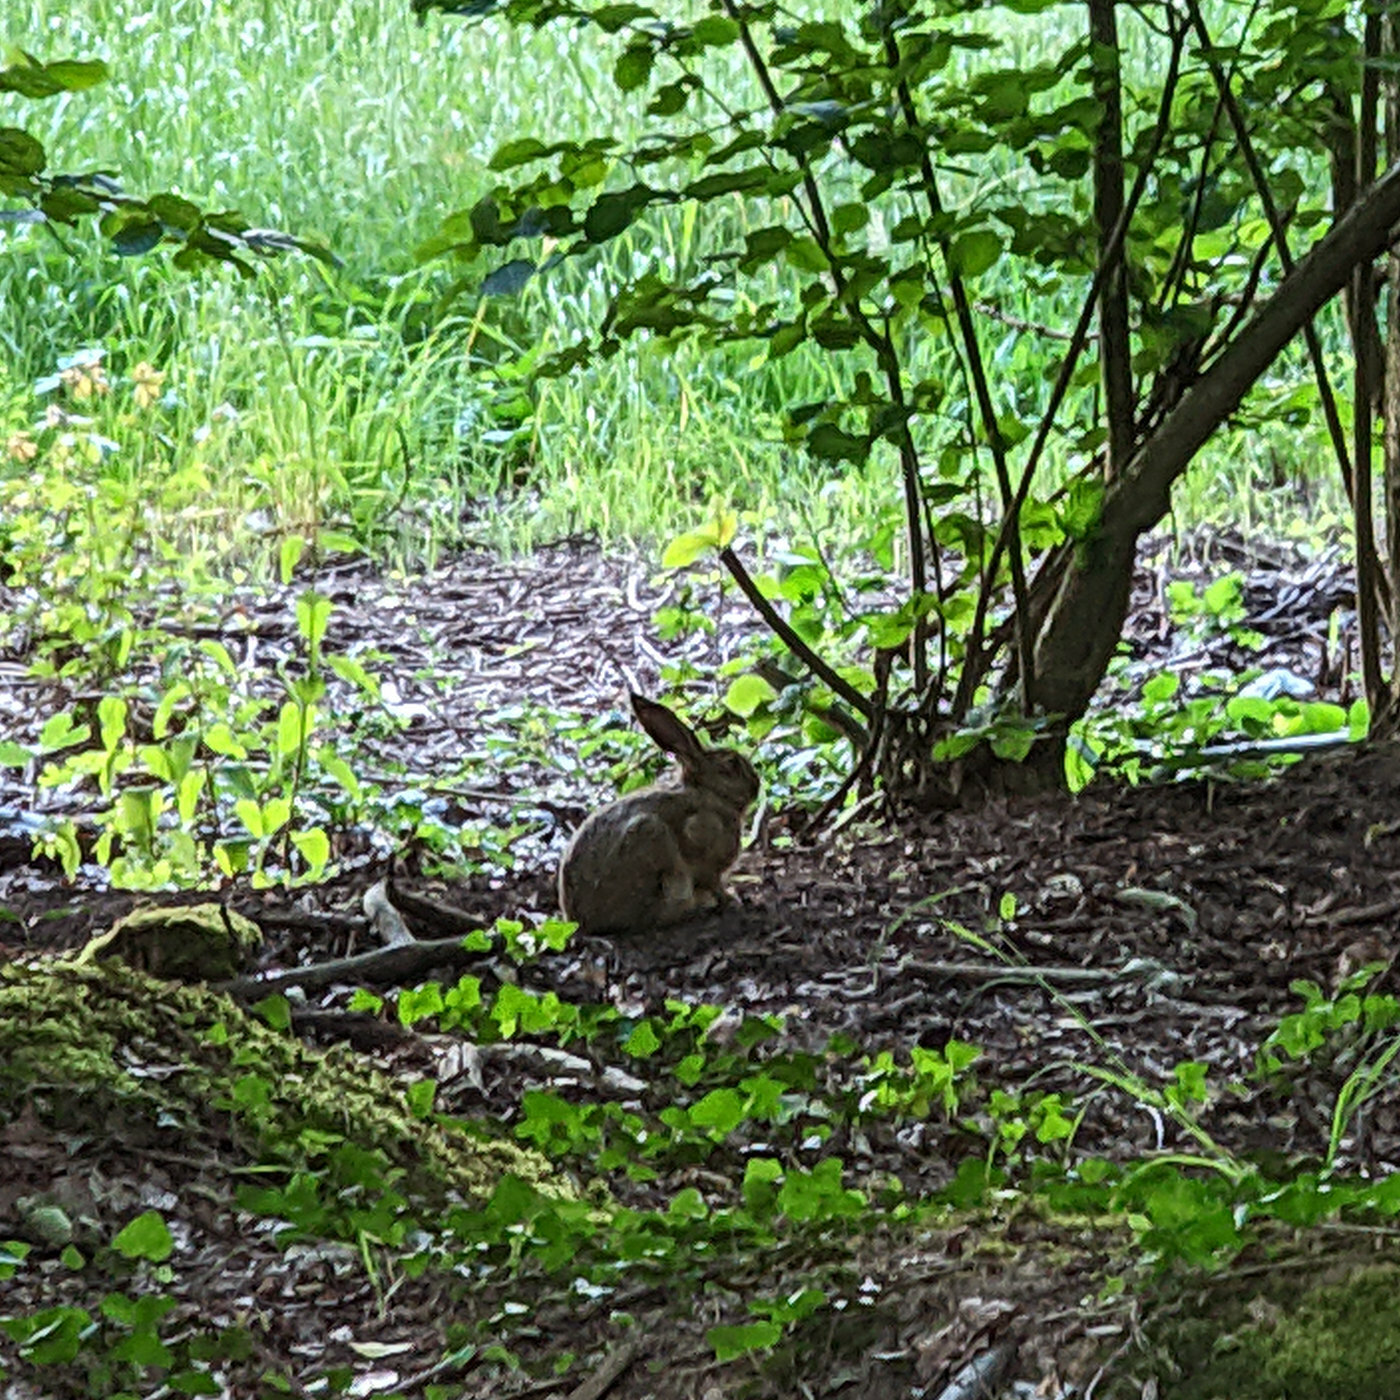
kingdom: Animalia
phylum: Chordata
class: Mammalia
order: Lagomorpha
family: Leporidae
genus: Lepus
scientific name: Lepus europaeus
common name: European hare
